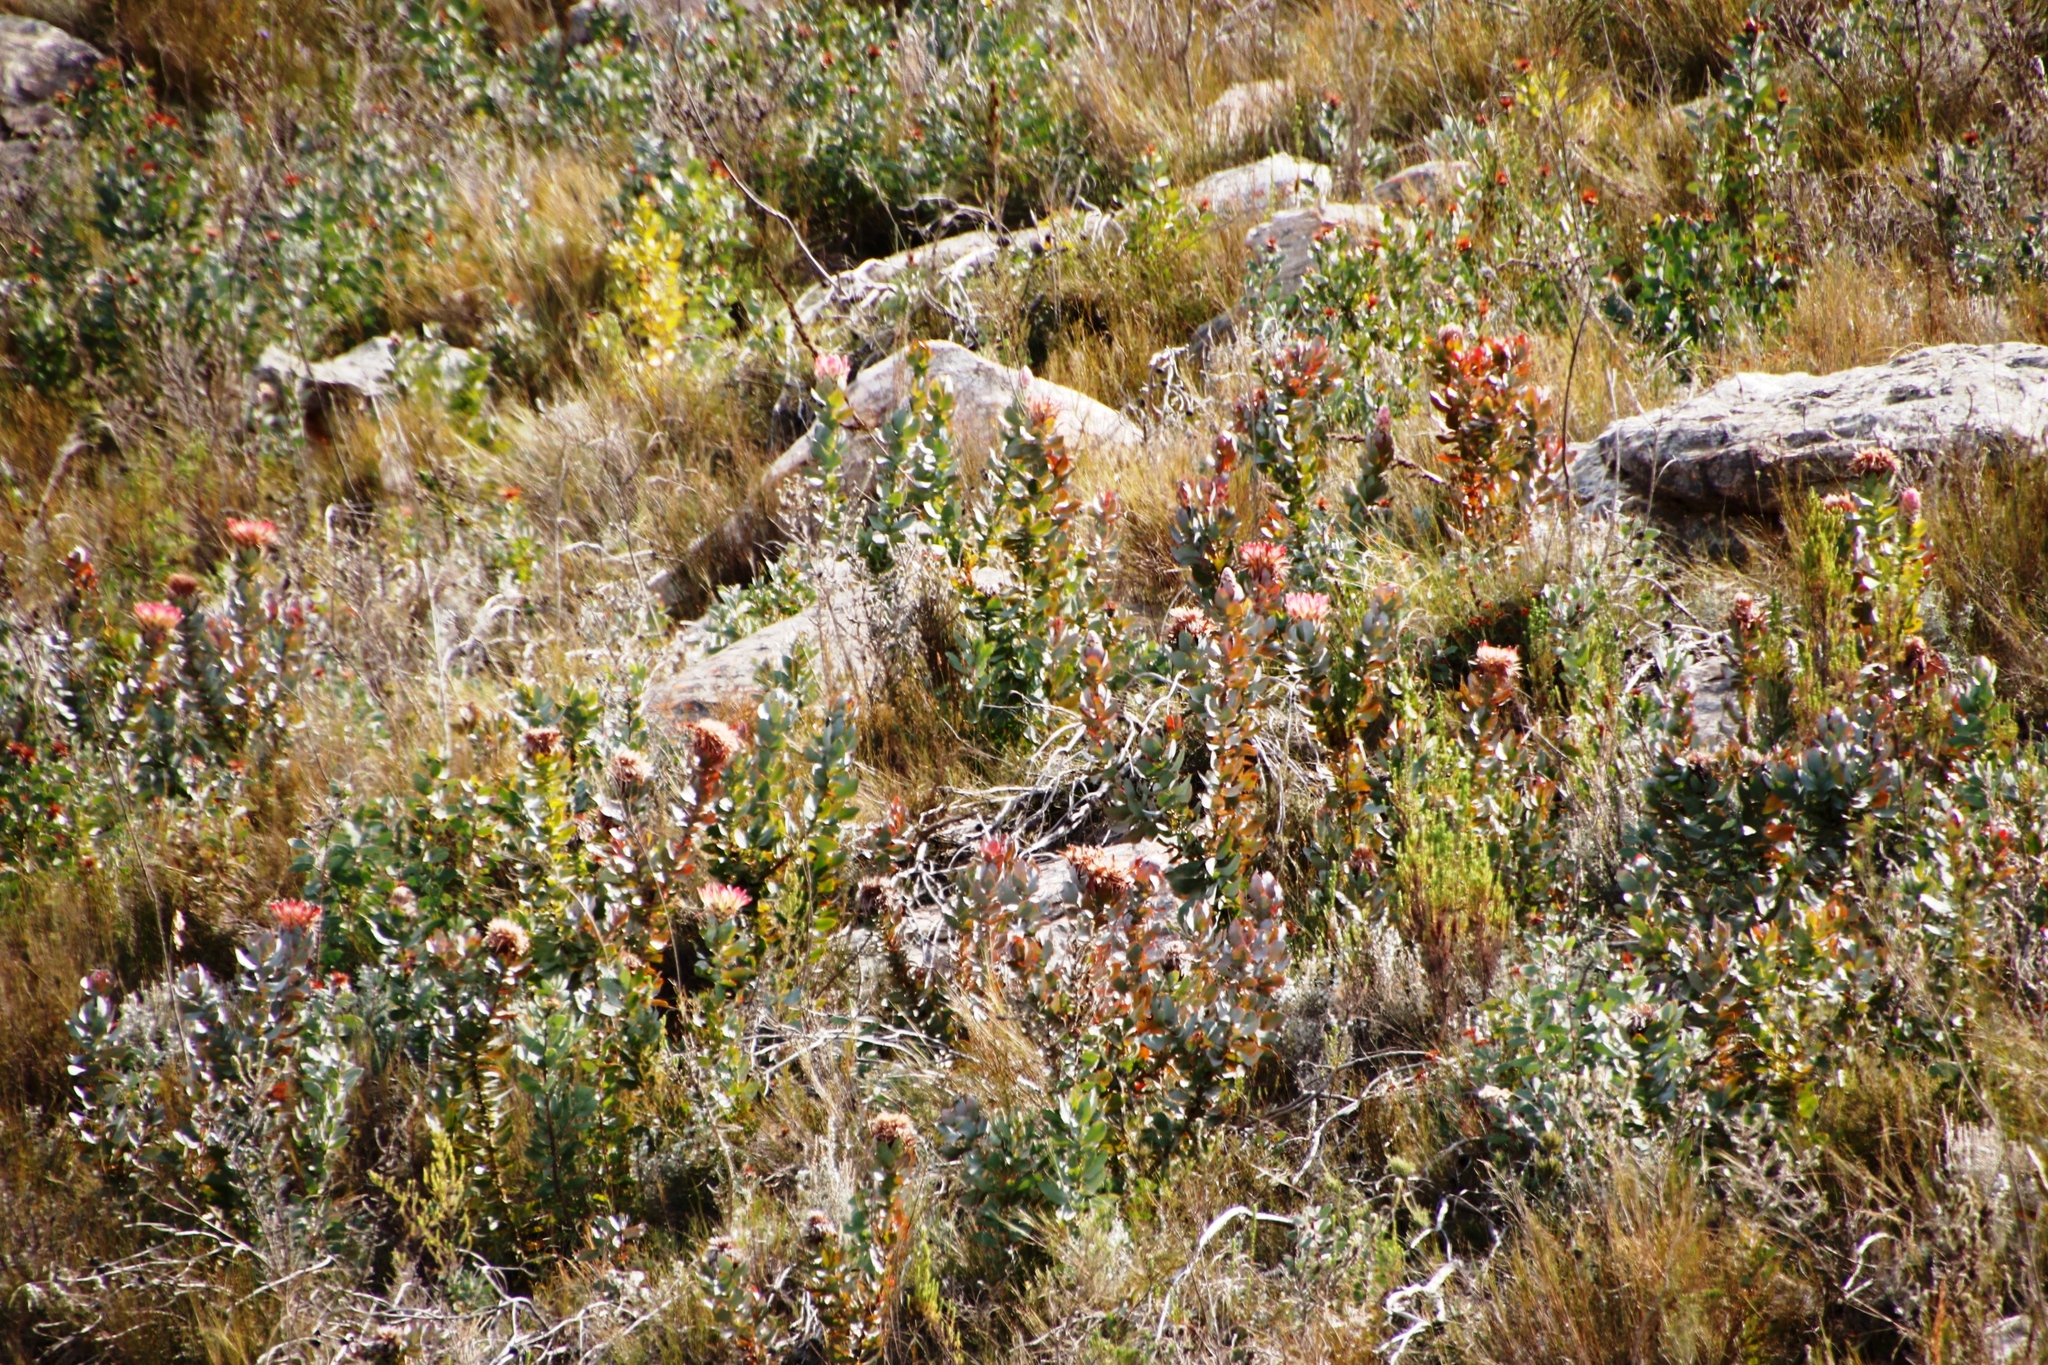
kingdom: Plantae
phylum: Tracheophyta
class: Magnoliopsida
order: Proteales
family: Proteaceae
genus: Protea
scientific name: Protea eximia
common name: Broad-leaved sugarbush
